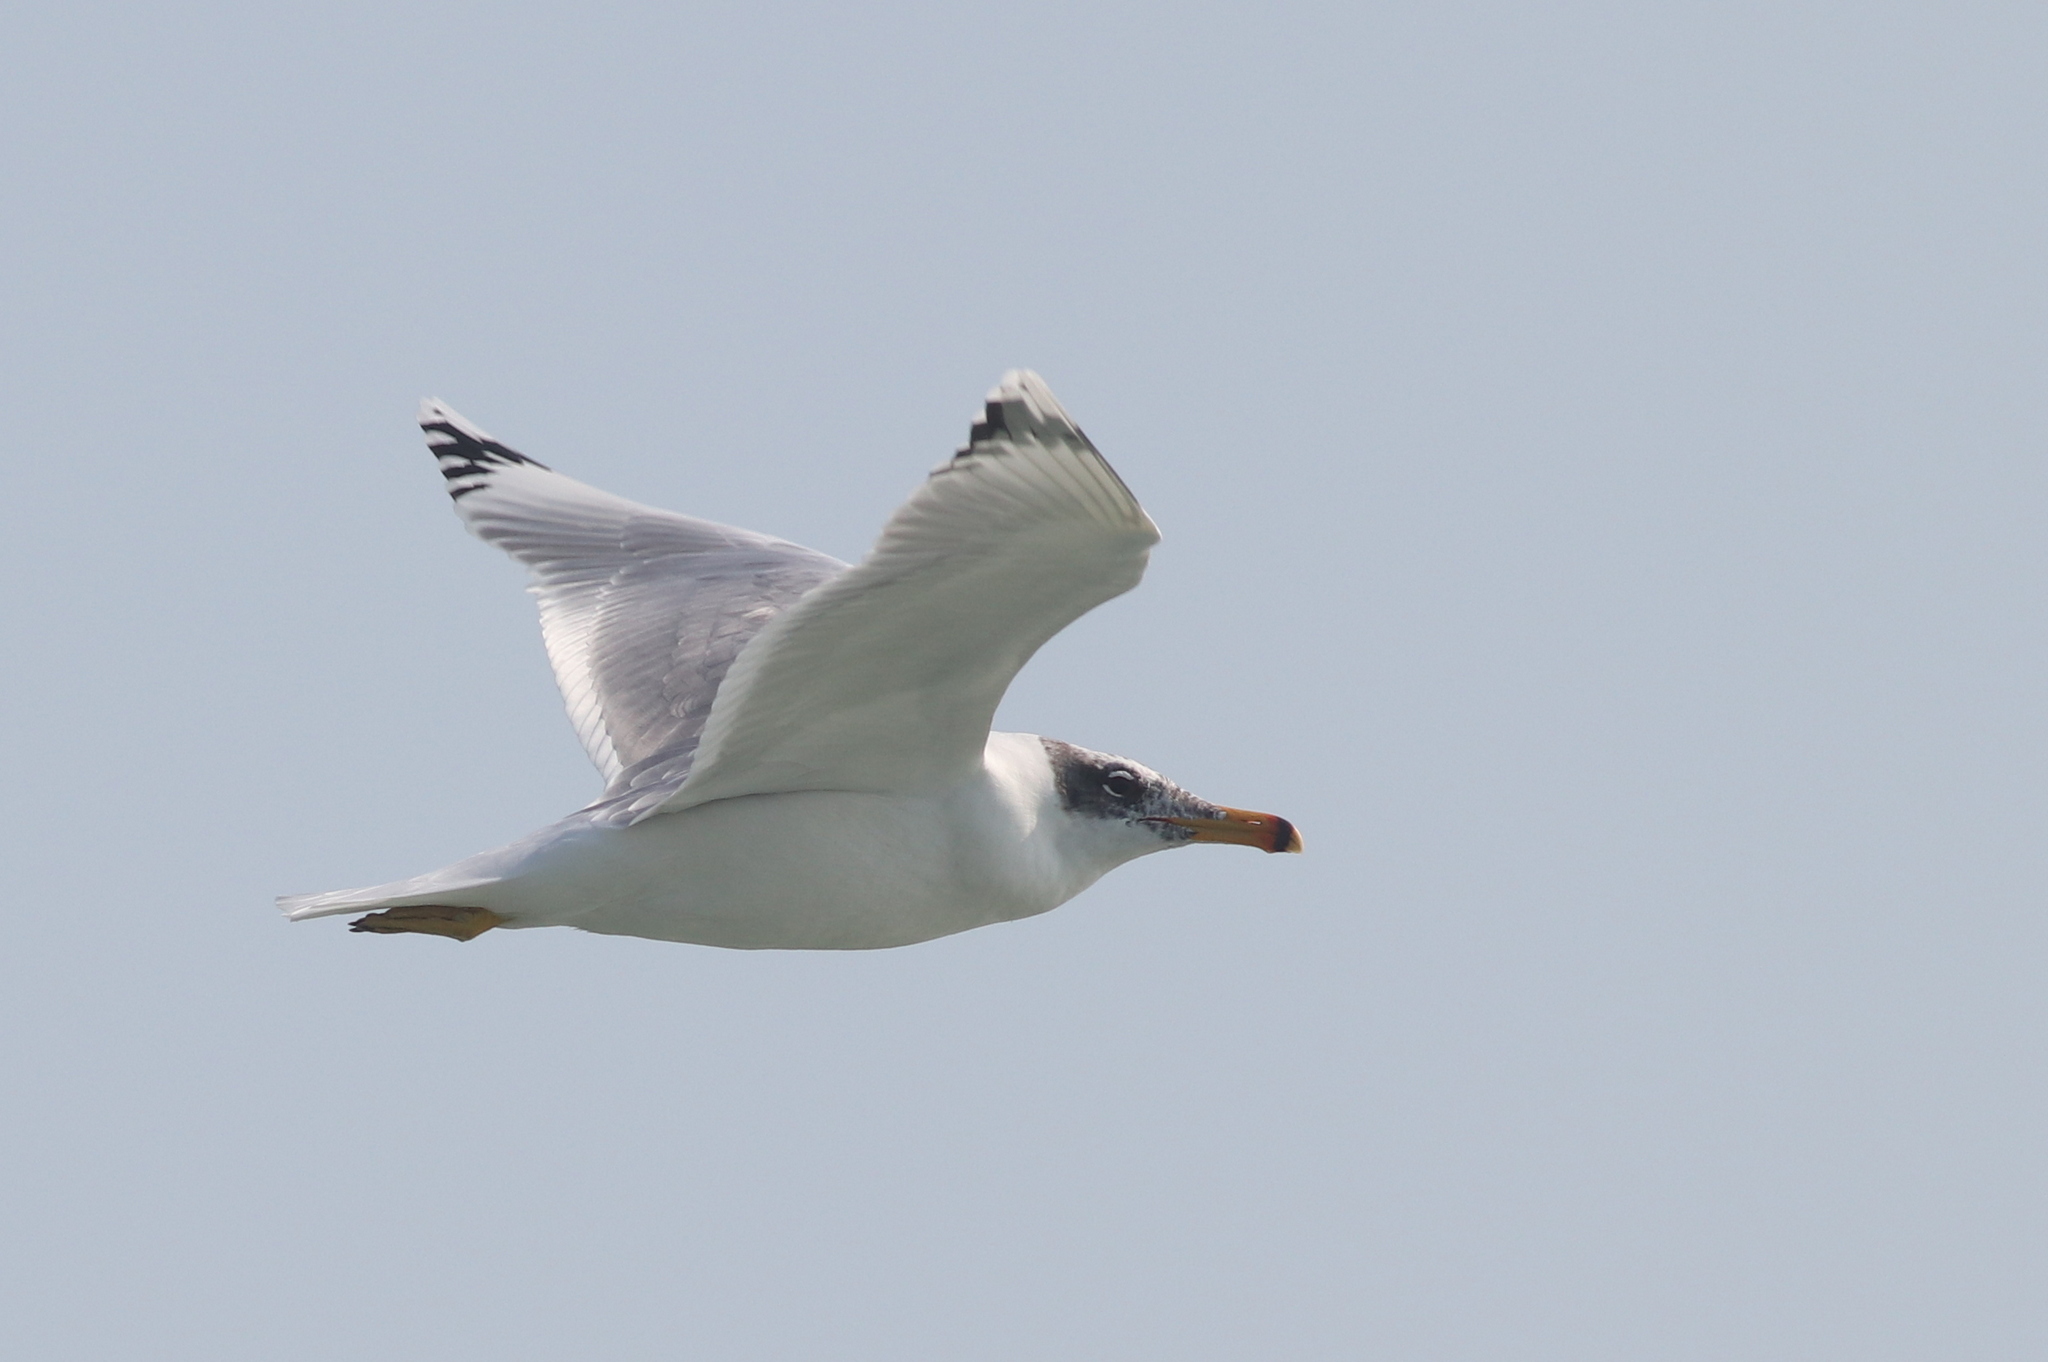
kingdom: Animalia
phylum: Chordata
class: Aves
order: Charadriiformes
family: Laridae
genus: Ichthyaetus
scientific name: Ichthyaetus ichthyaetus
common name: Pallas's gull
